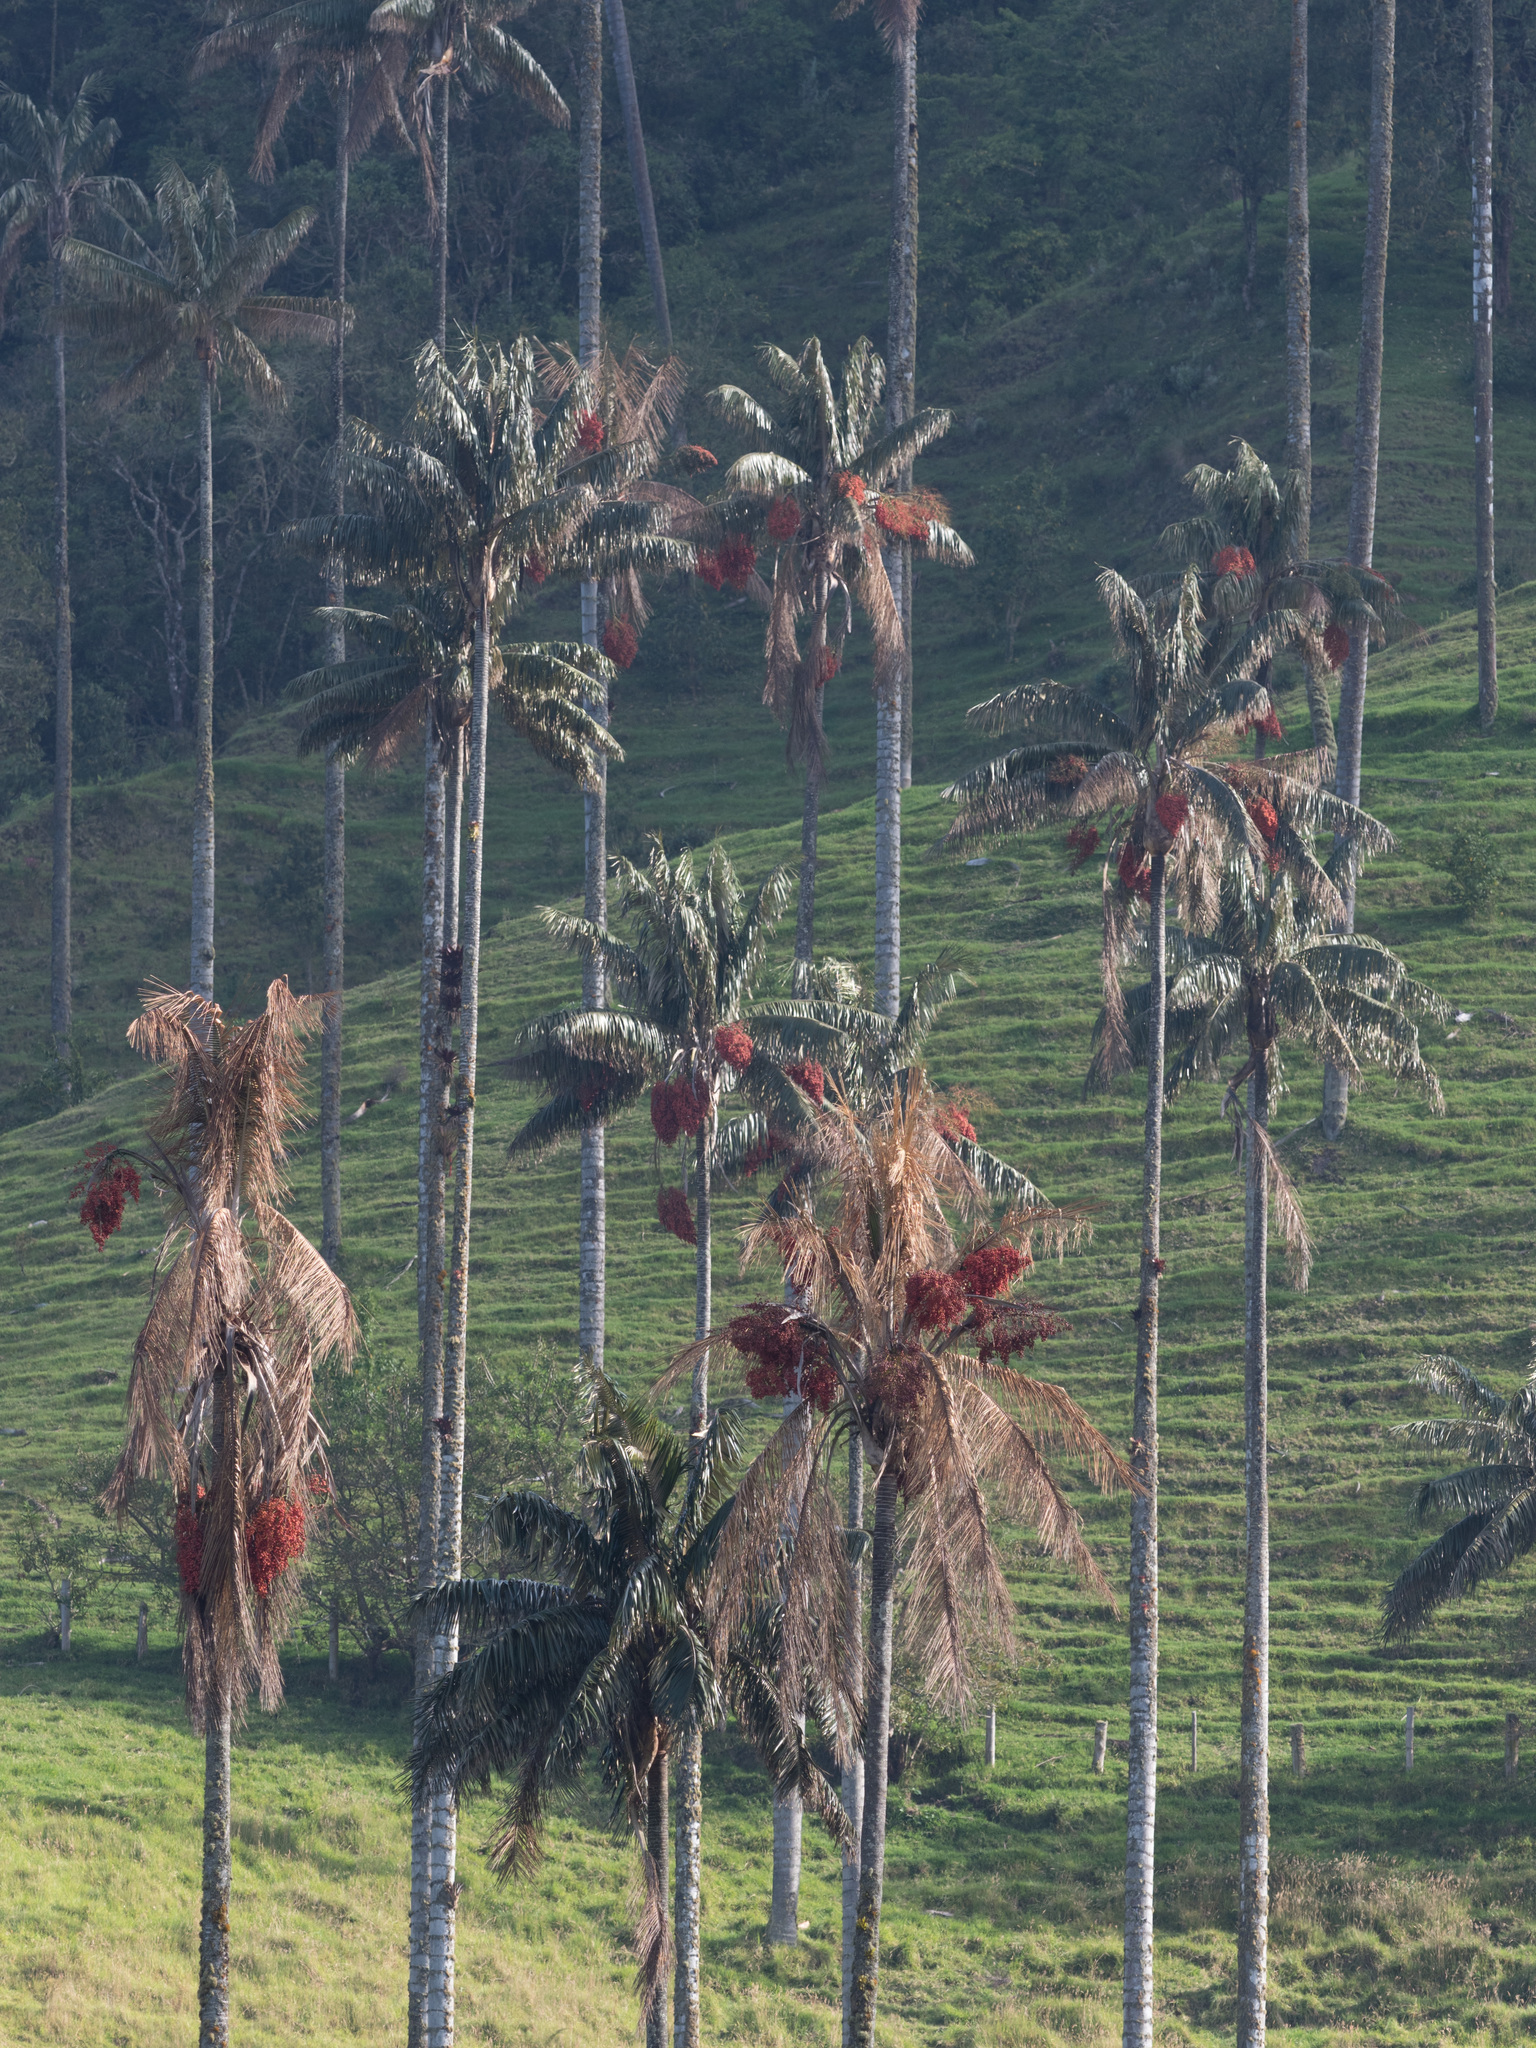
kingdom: Plantae
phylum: Tracheophyta
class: Liliopsida
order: Arecales
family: Arecaceae
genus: Ceroxylon
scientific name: Ceroxylon quindiuense
